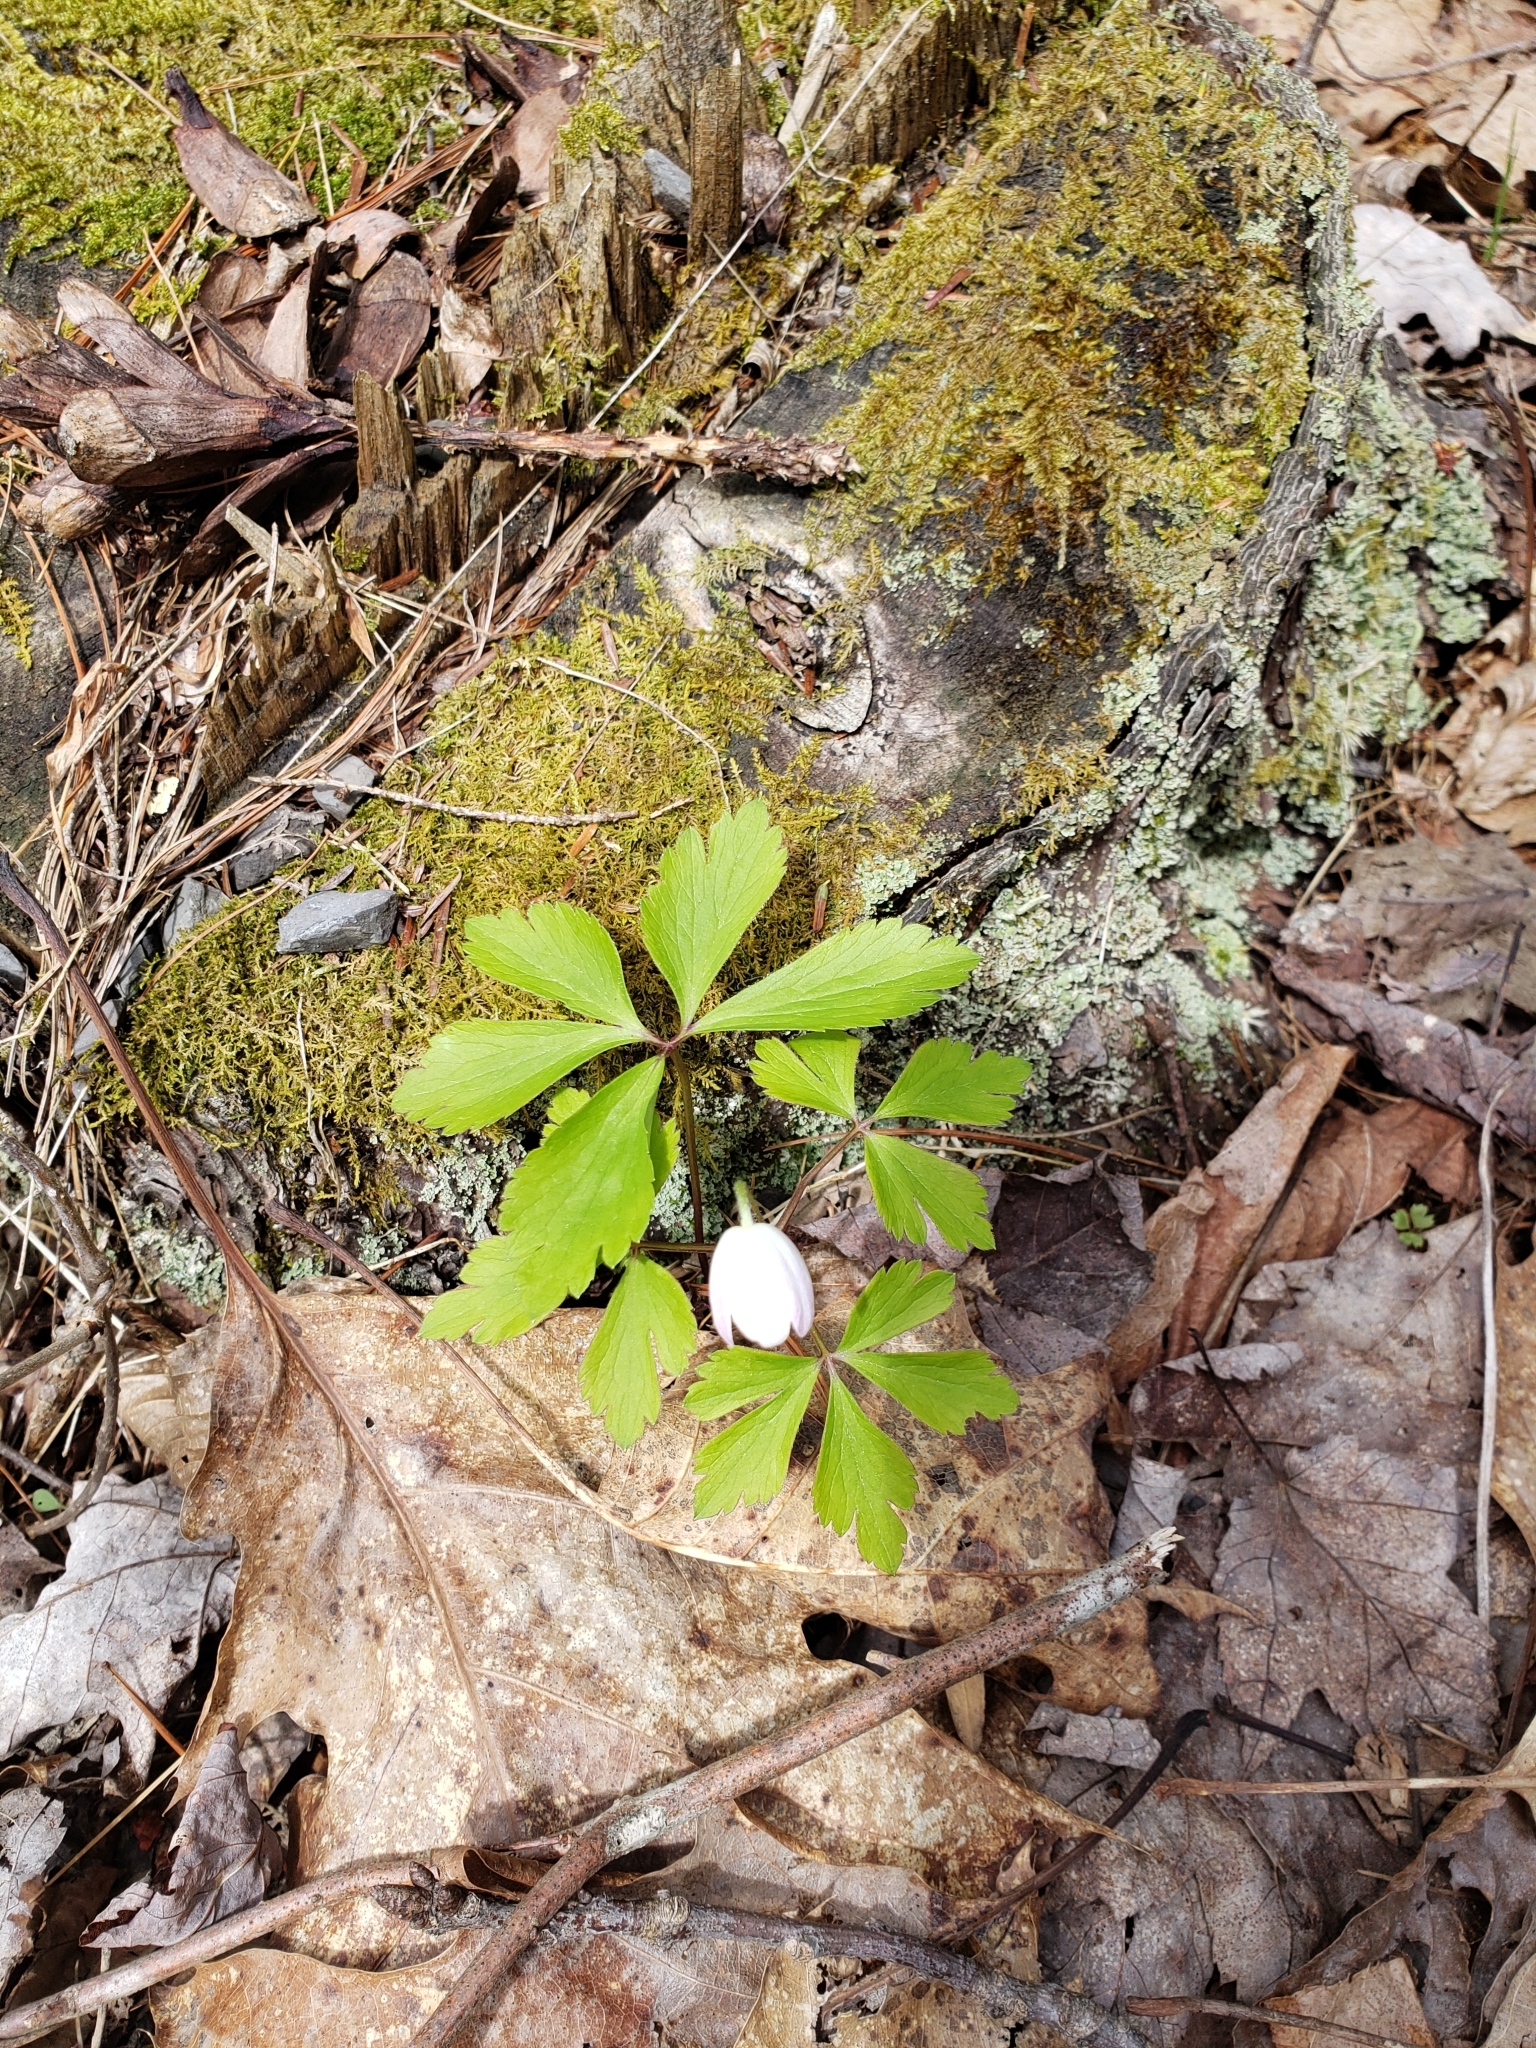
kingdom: Plantae
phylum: Tracheophyta
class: Magnoliopsida
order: Ranunculales
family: Ranunculaceae
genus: Anemone
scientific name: Anemone quinquefolia
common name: Wood anemone
